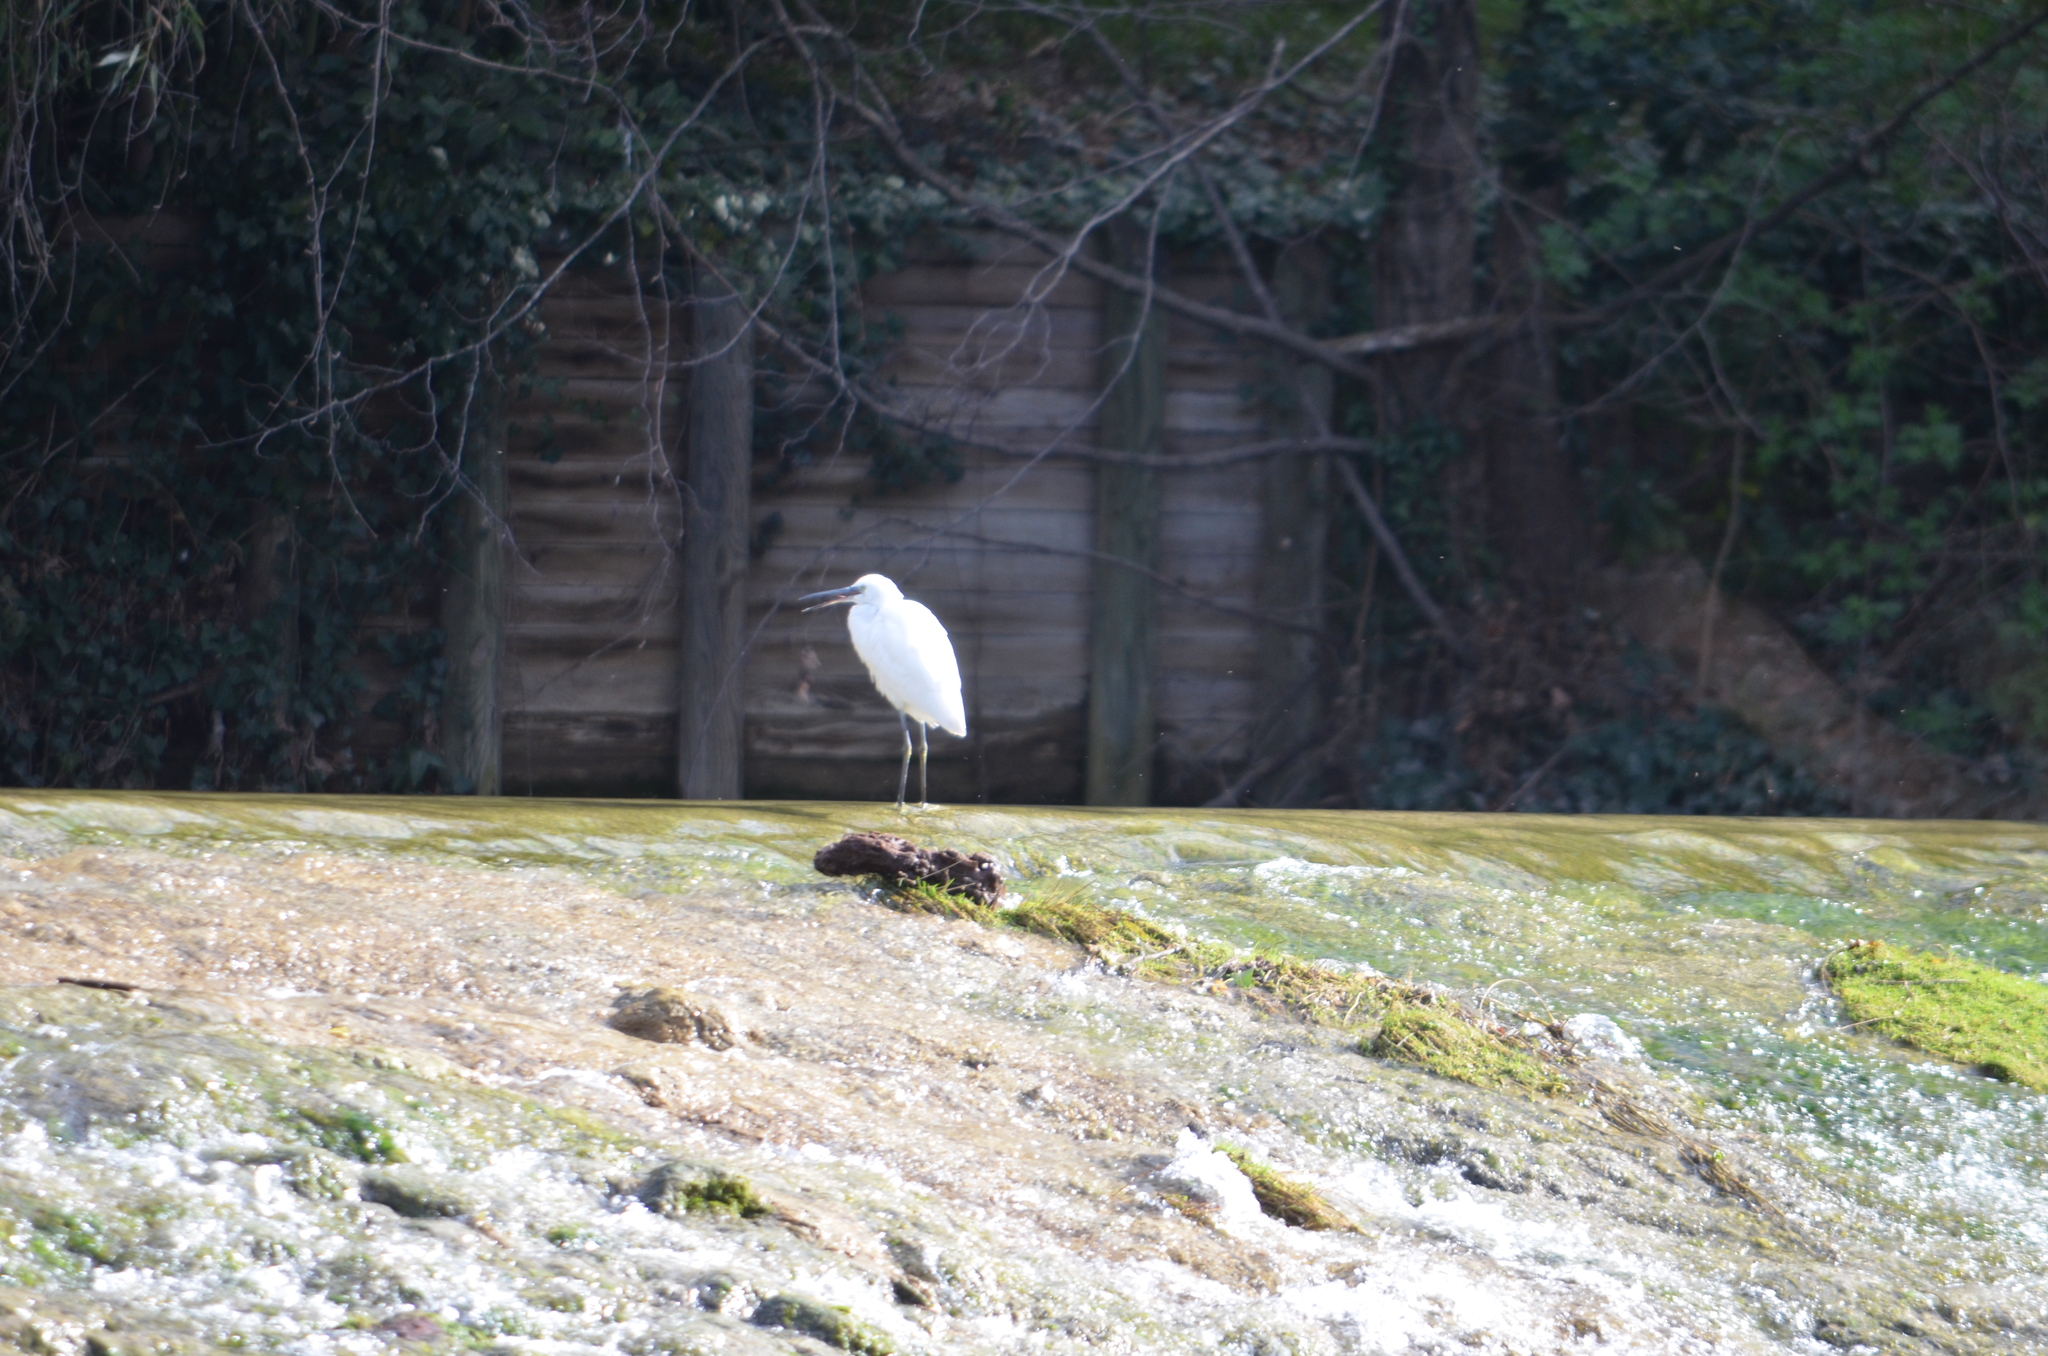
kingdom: Animalia
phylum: Chordata
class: Aves
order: Pelecaniformes
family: Ardeidae
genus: Egretta
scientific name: Egretta garzetta
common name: Little egret
